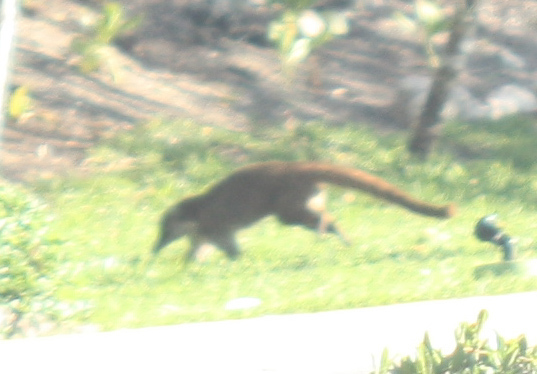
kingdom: Animalia
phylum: Chordata
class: Mammalia
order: Carnivora
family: Procyonidae
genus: Nasua
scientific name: Nasua narica
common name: White-nosed coati
